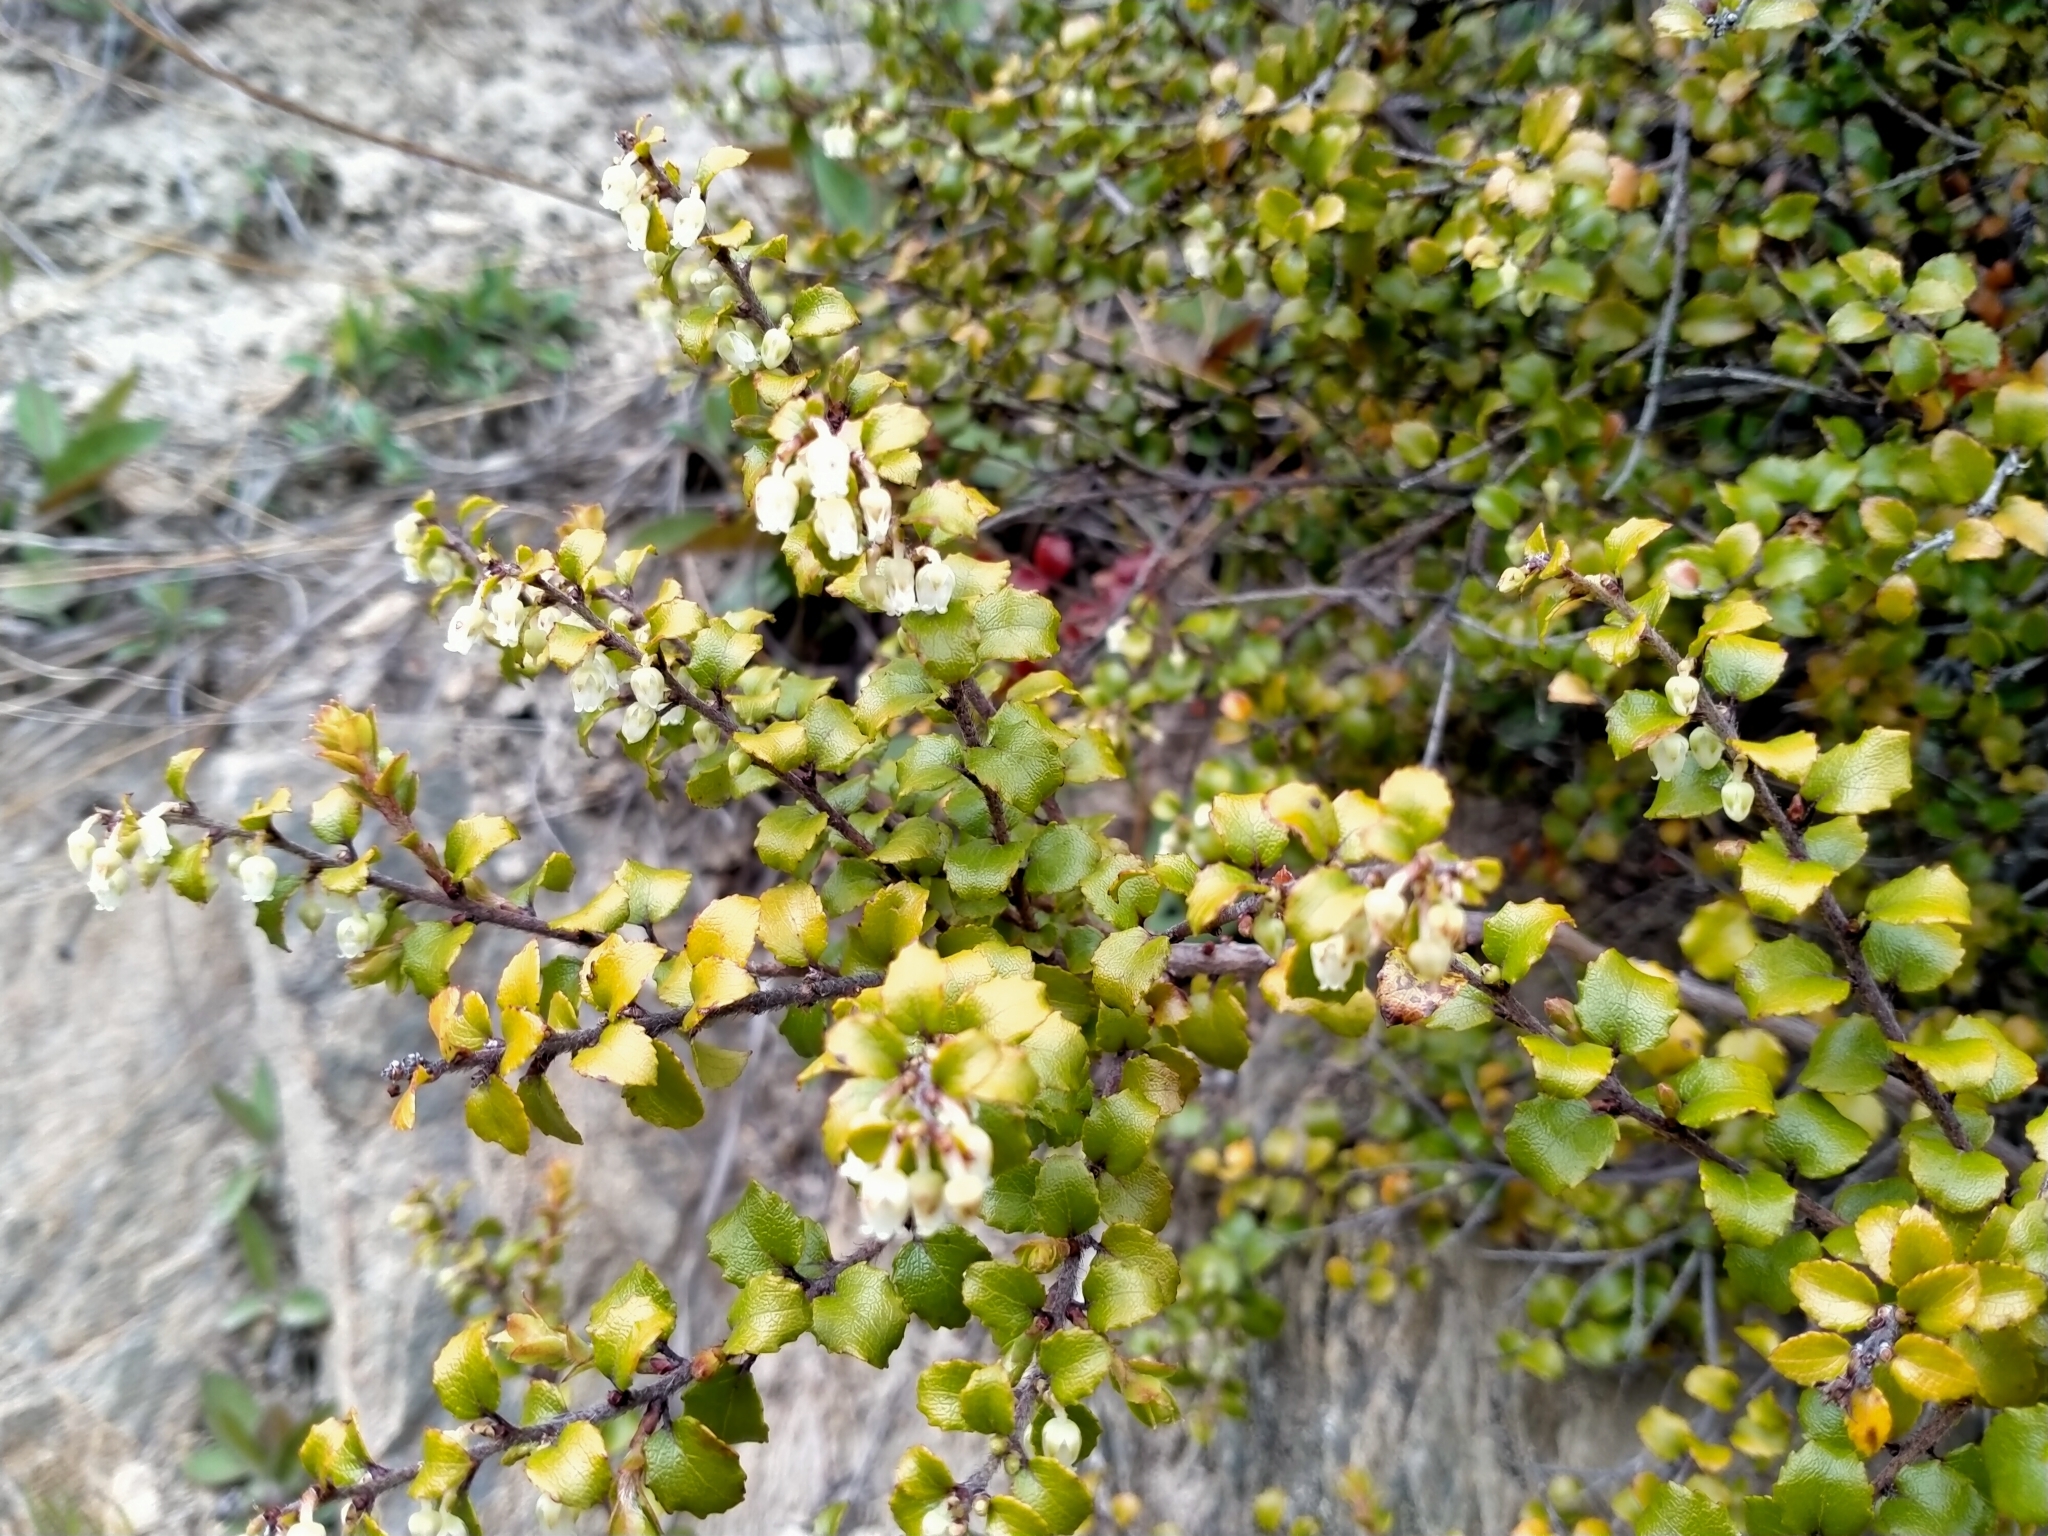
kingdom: Plantae
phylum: Tracheophyta
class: Magnoliopsida
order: Ericales
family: Ericaceae
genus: Gaultheria
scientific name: Gaultheria antipoda
